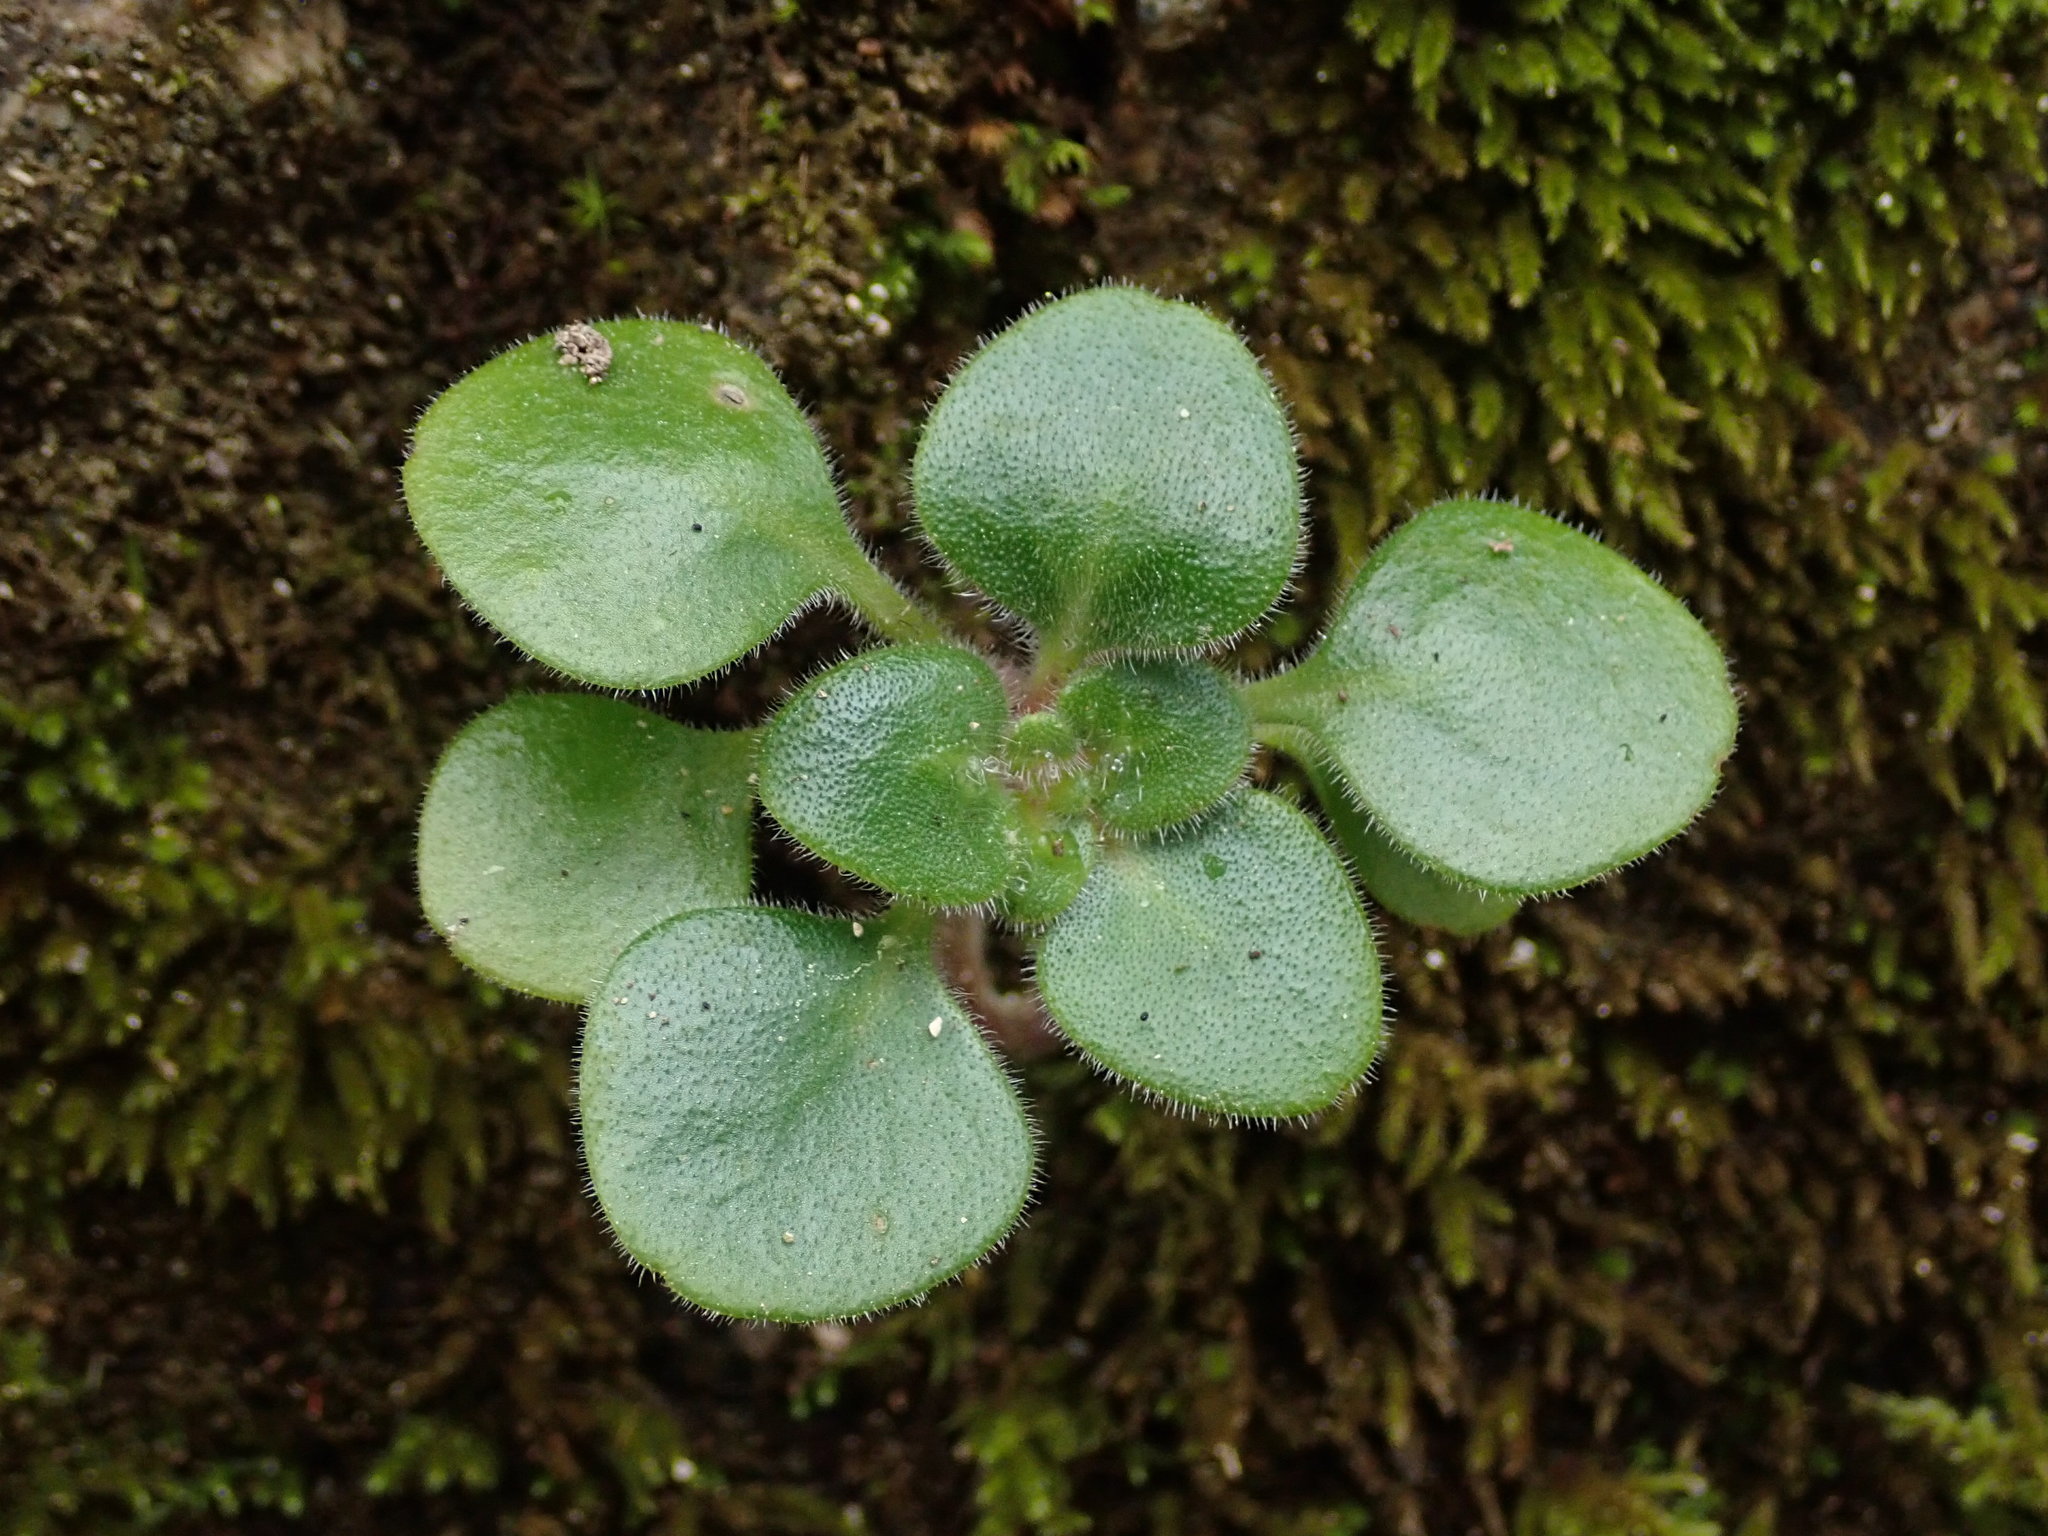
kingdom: Plantae
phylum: Tracheophyta
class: Magnoliopsida
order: Saxifragales
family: Crassulaceae
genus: Aichryson
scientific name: Aichryson laxum
